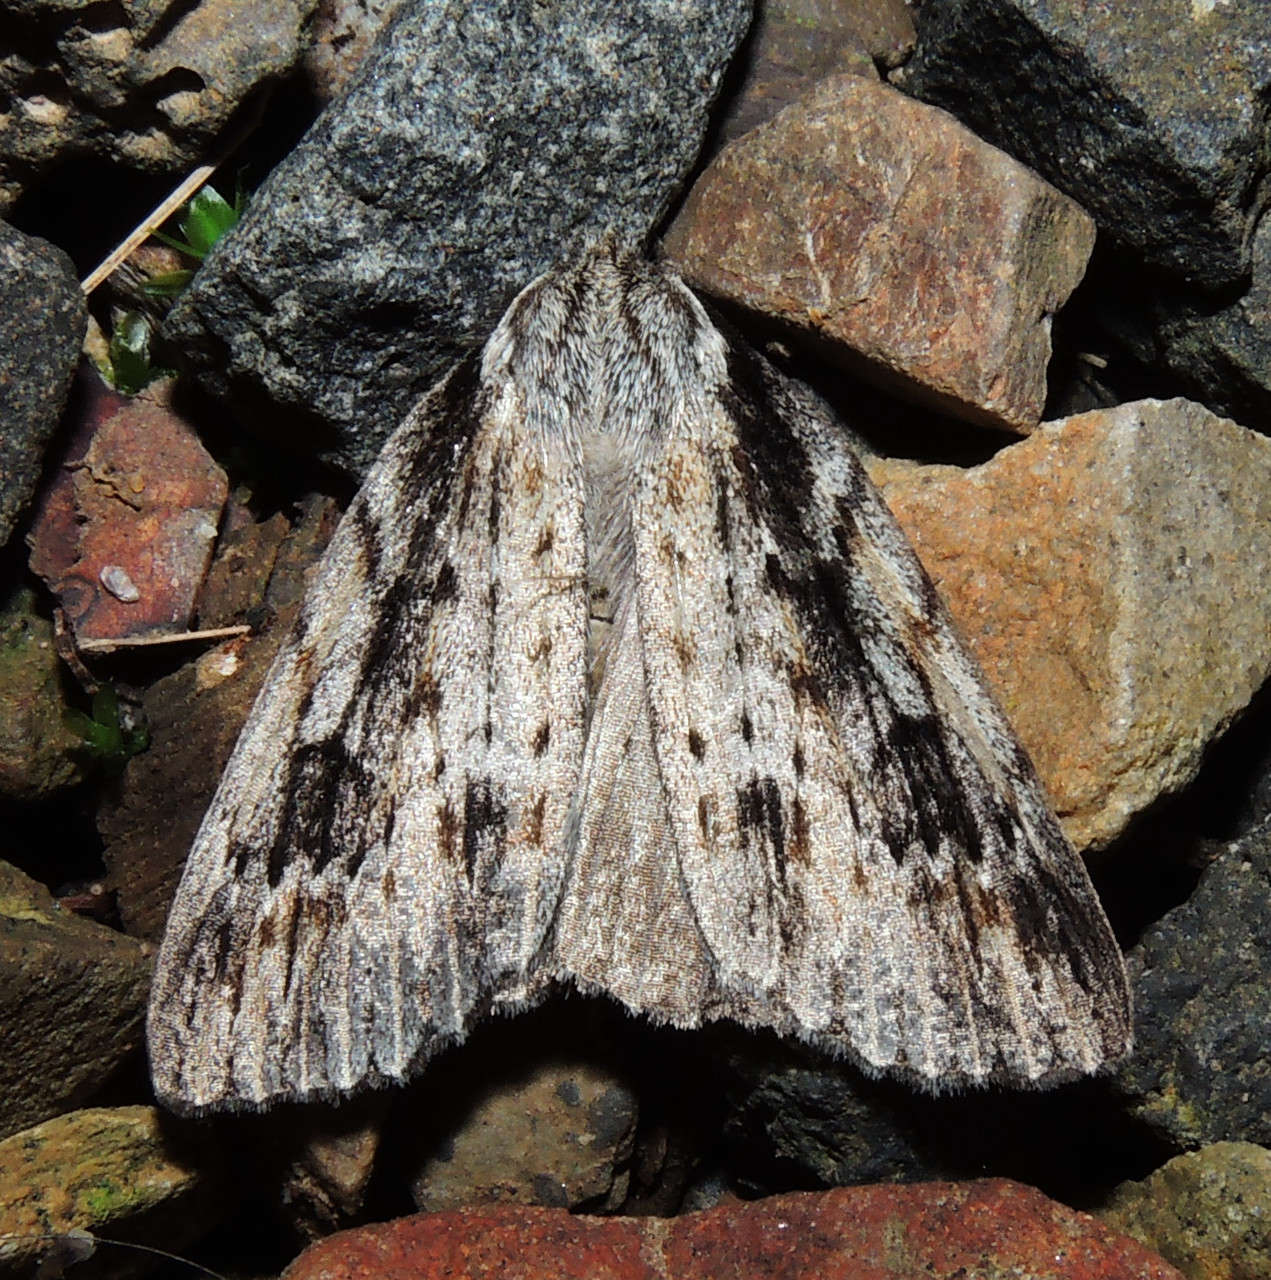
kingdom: Animalia
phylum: Arthropoda
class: Insecta
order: Lepidoptera
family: Geometridae
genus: Chlenias
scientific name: Chlenias banksiaria
